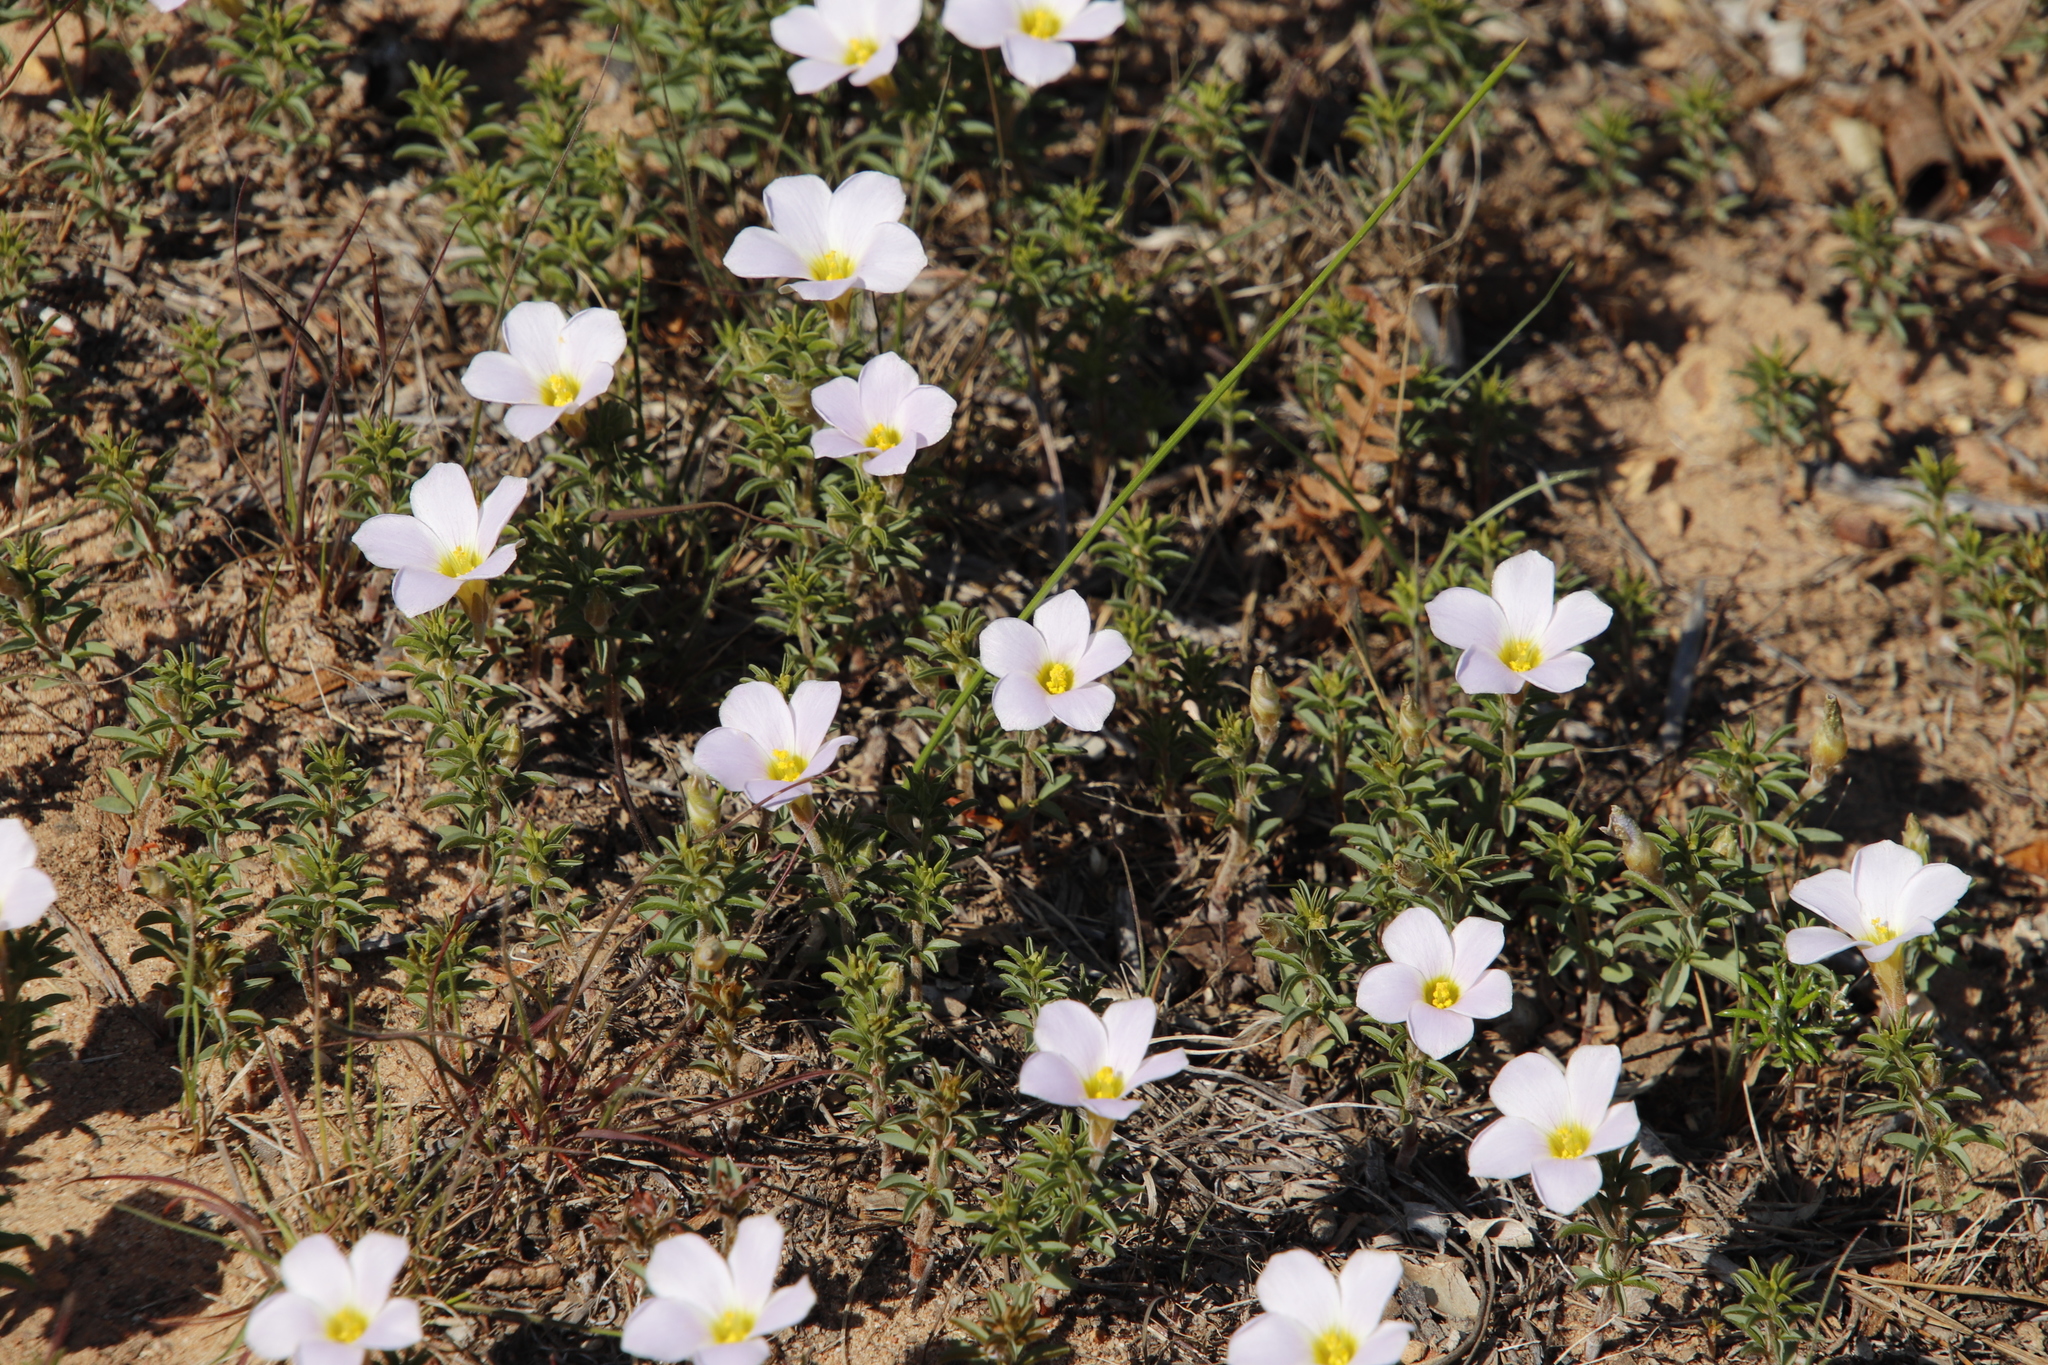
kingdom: Plantae
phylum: Tracheophyta
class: Magnoliopsida
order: Oxalidales
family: Oxalidaceae
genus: Oxalis
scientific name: Oxalis hirta
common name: Tropical woodsorrel
